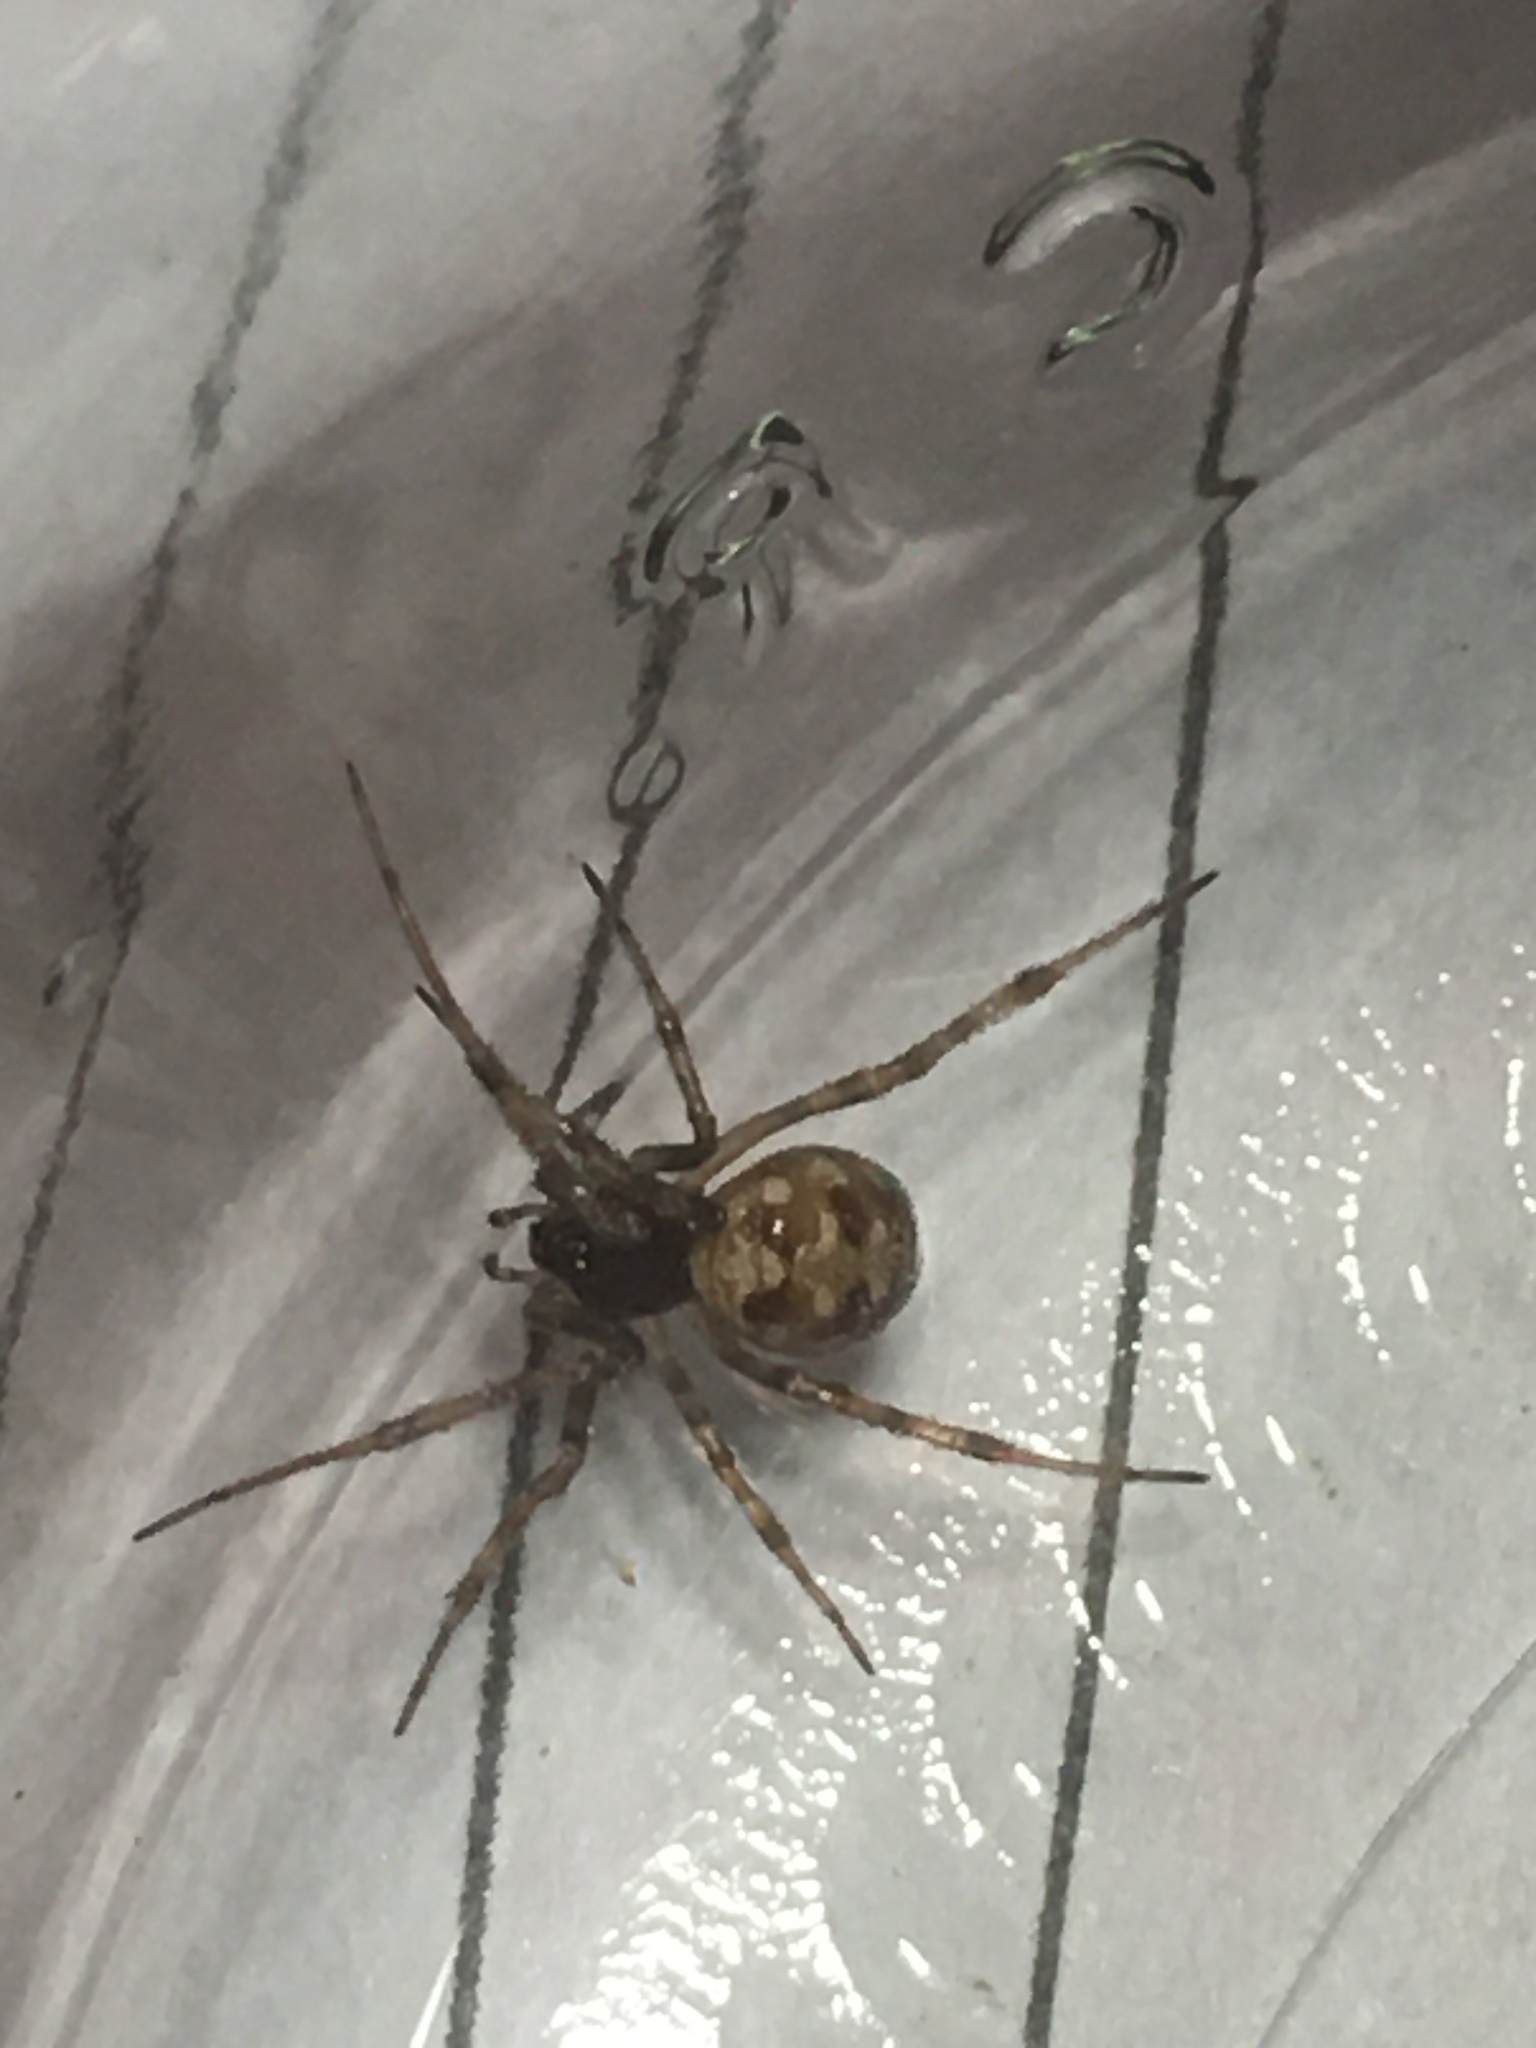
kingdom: Animalia
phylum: Arthropoda
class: Arachnida
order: Araneae
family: Theridiidae
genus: Steatoda
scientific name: Steatoda triangulosa
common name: Triangulate bud spider
